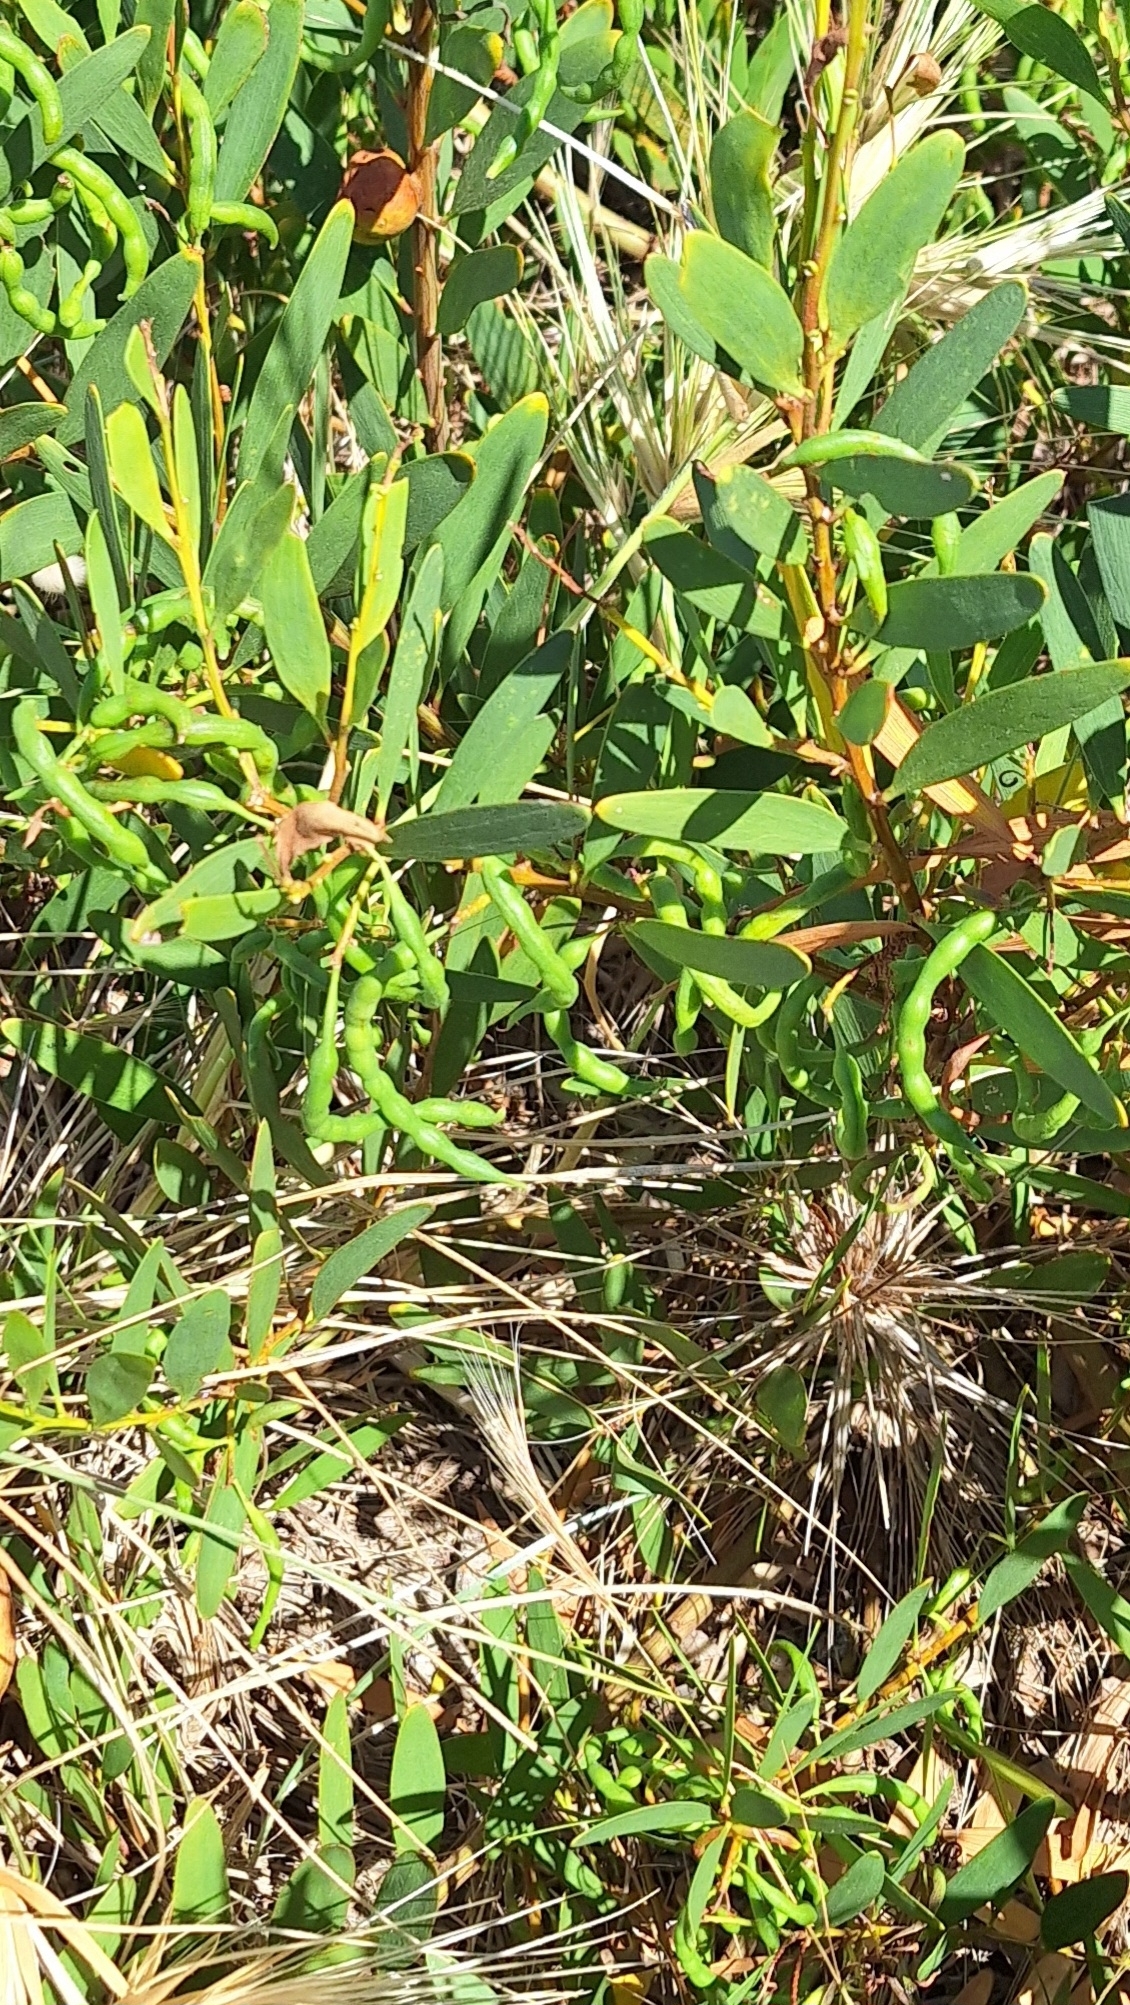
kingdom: Plantae
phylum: Tracheophyta
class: Magnoliopsida
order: Fabales
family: Fabaceae
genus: Acacia
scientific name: Acacia longifolia
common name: Sydney golden wattle
